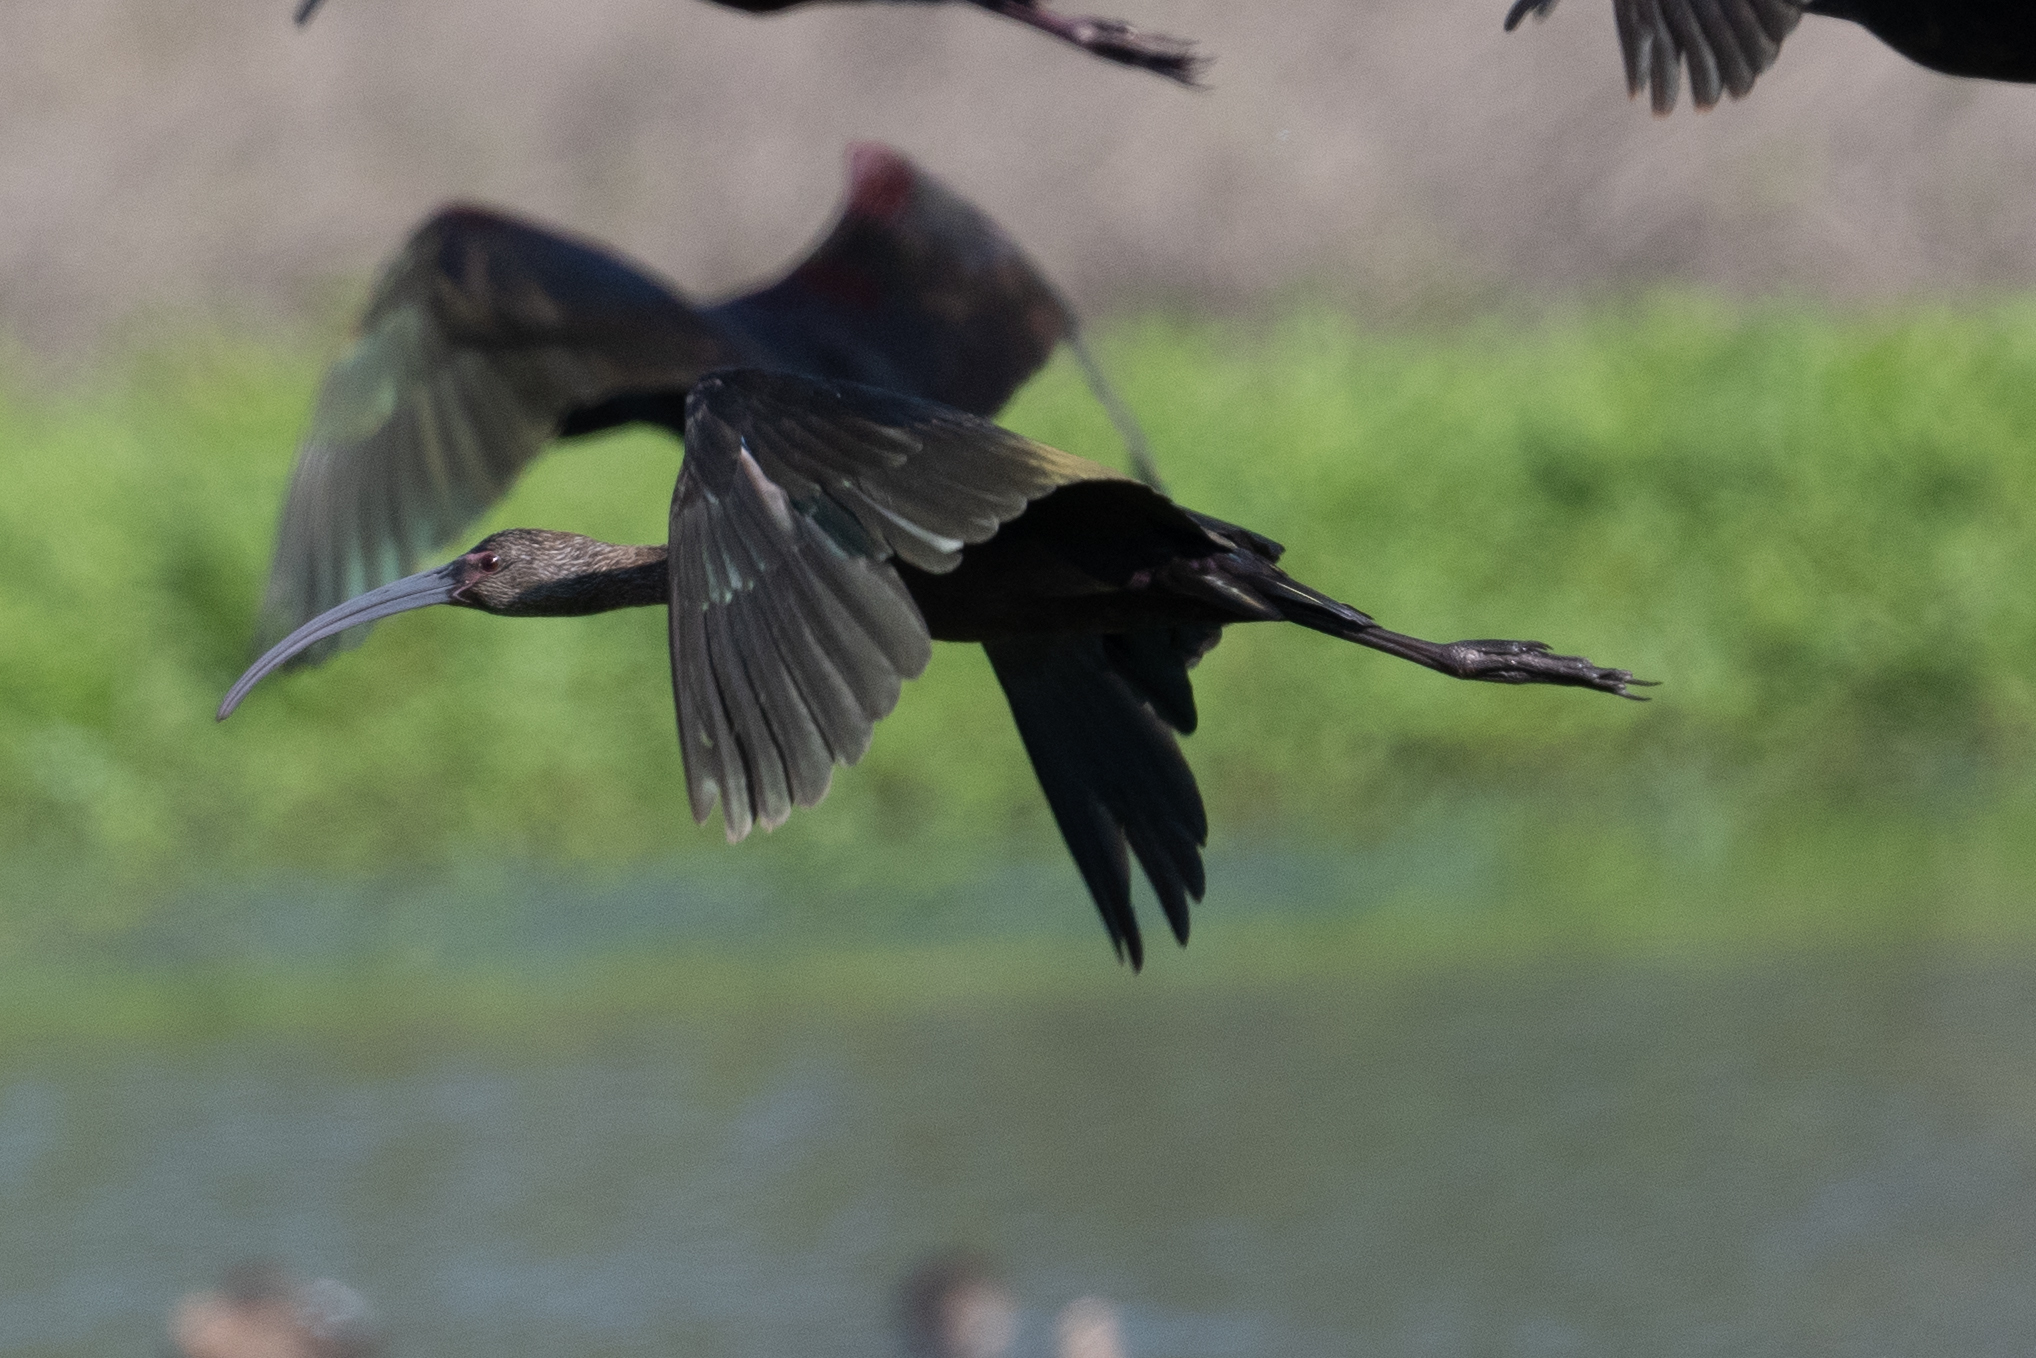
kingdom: Animalia
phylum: Chordata
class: Aves
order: Pelecaniformes
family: Threskiornithidae
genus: Plegadis
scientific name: Plegadis chihi
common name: White-faced ibis
